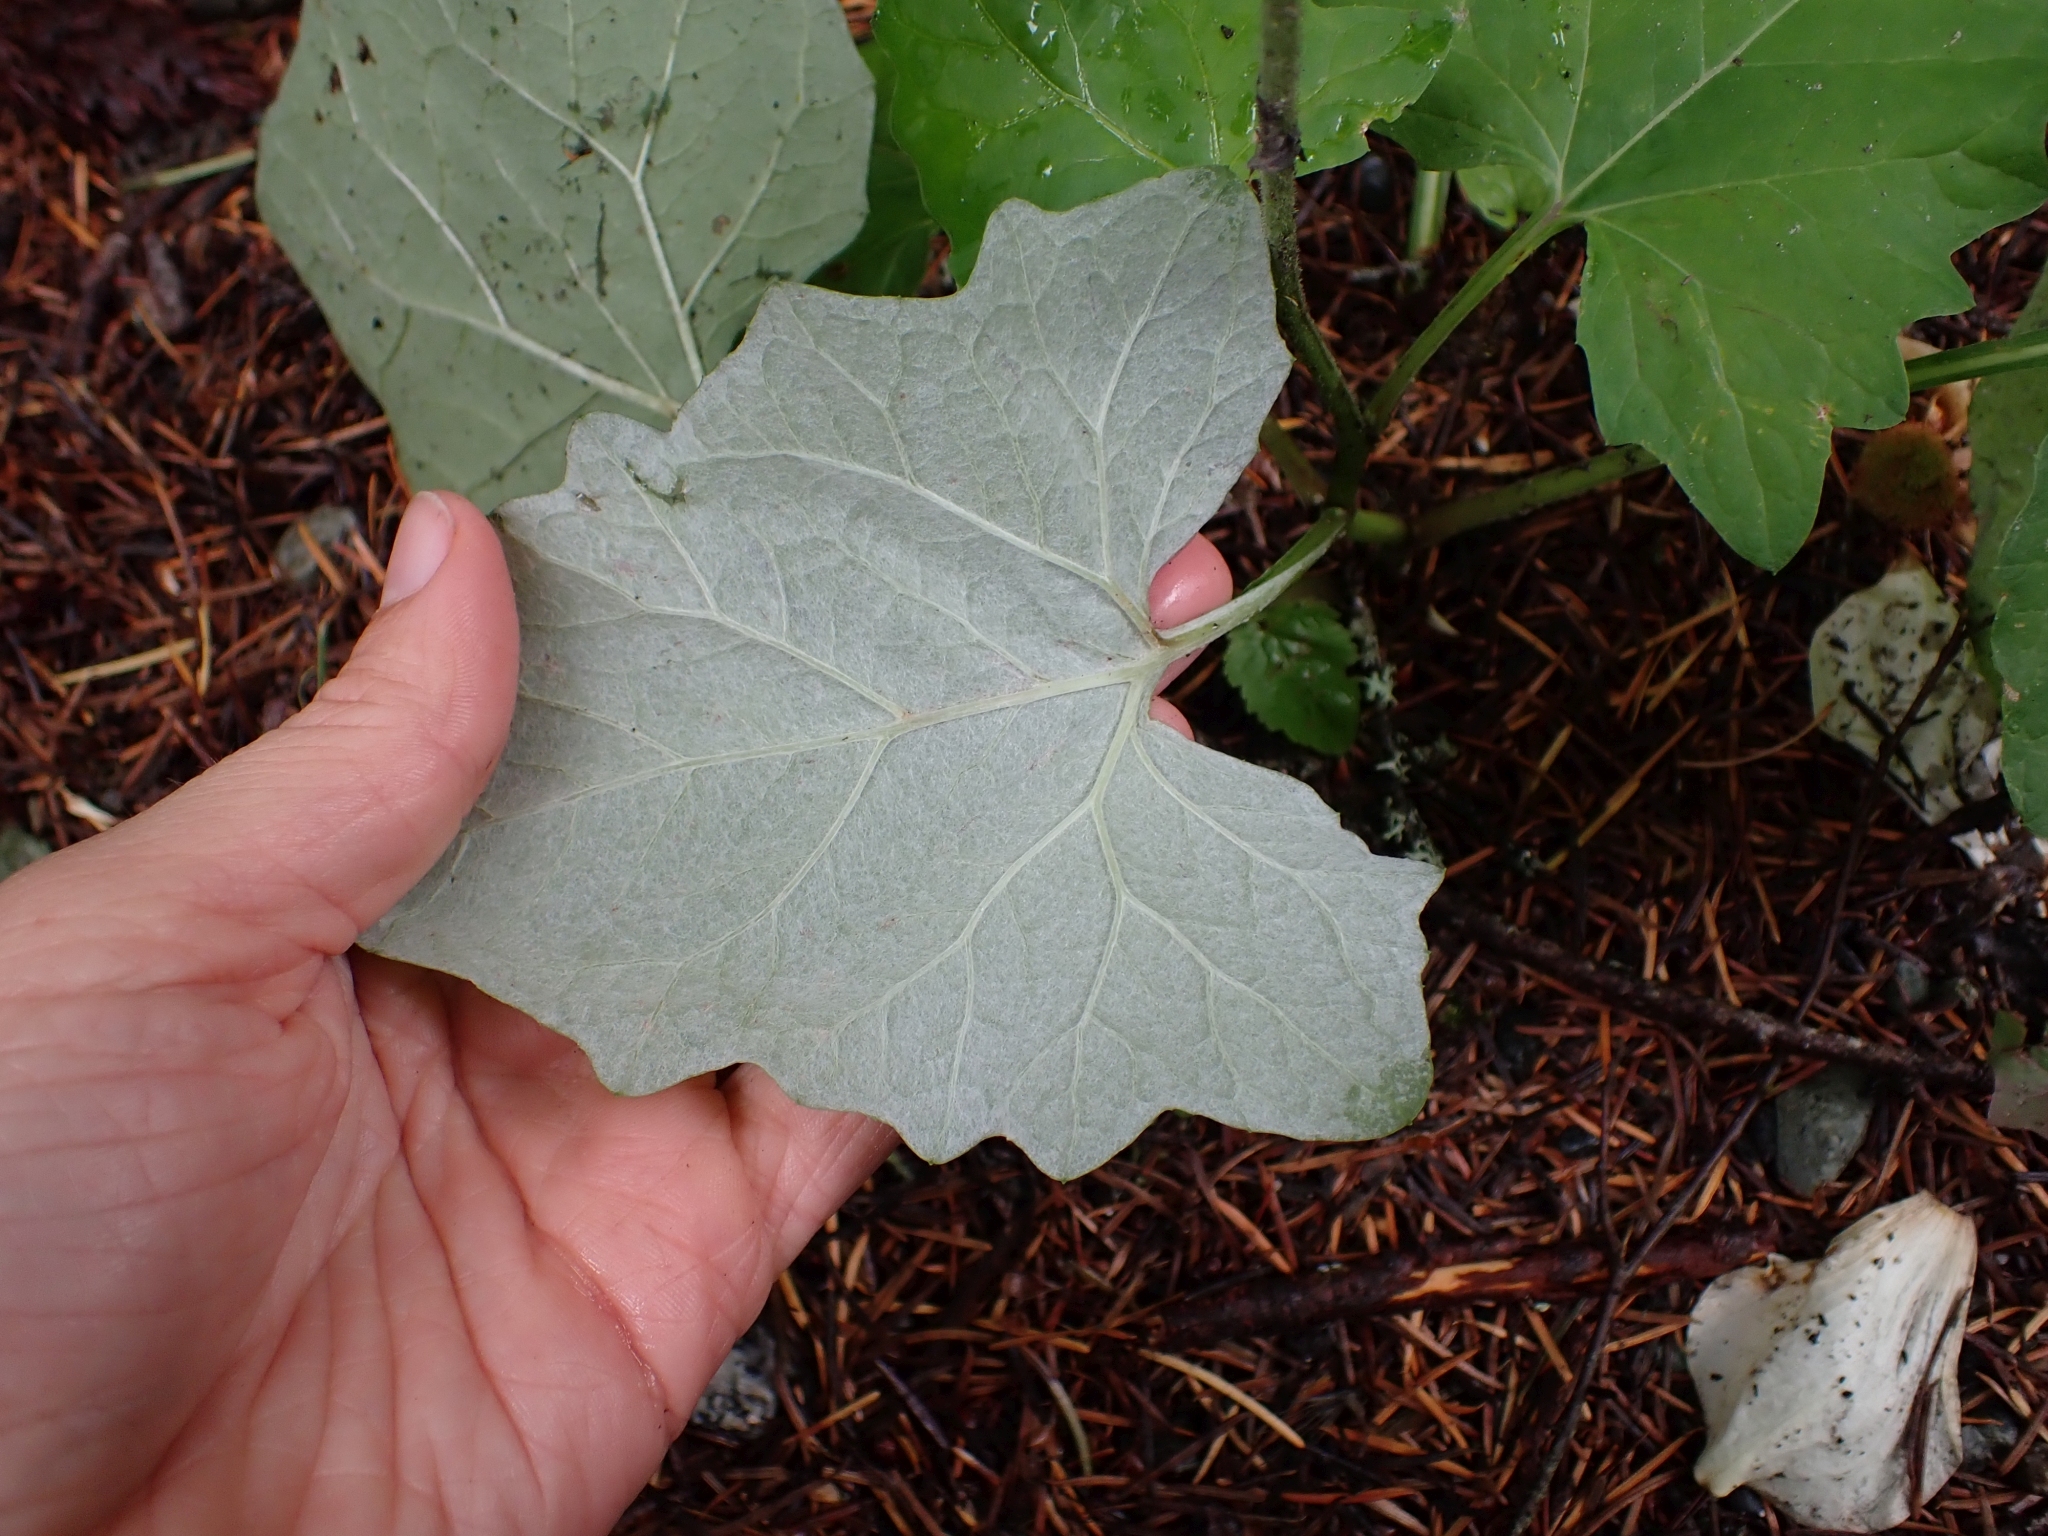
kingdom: Plantae
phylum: Tracheophyta
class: Magnoliopsida
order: Asterales
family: Asteraceae
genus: Adenocaulon
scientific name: Adenocaulon bicolor
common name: Trailplant
